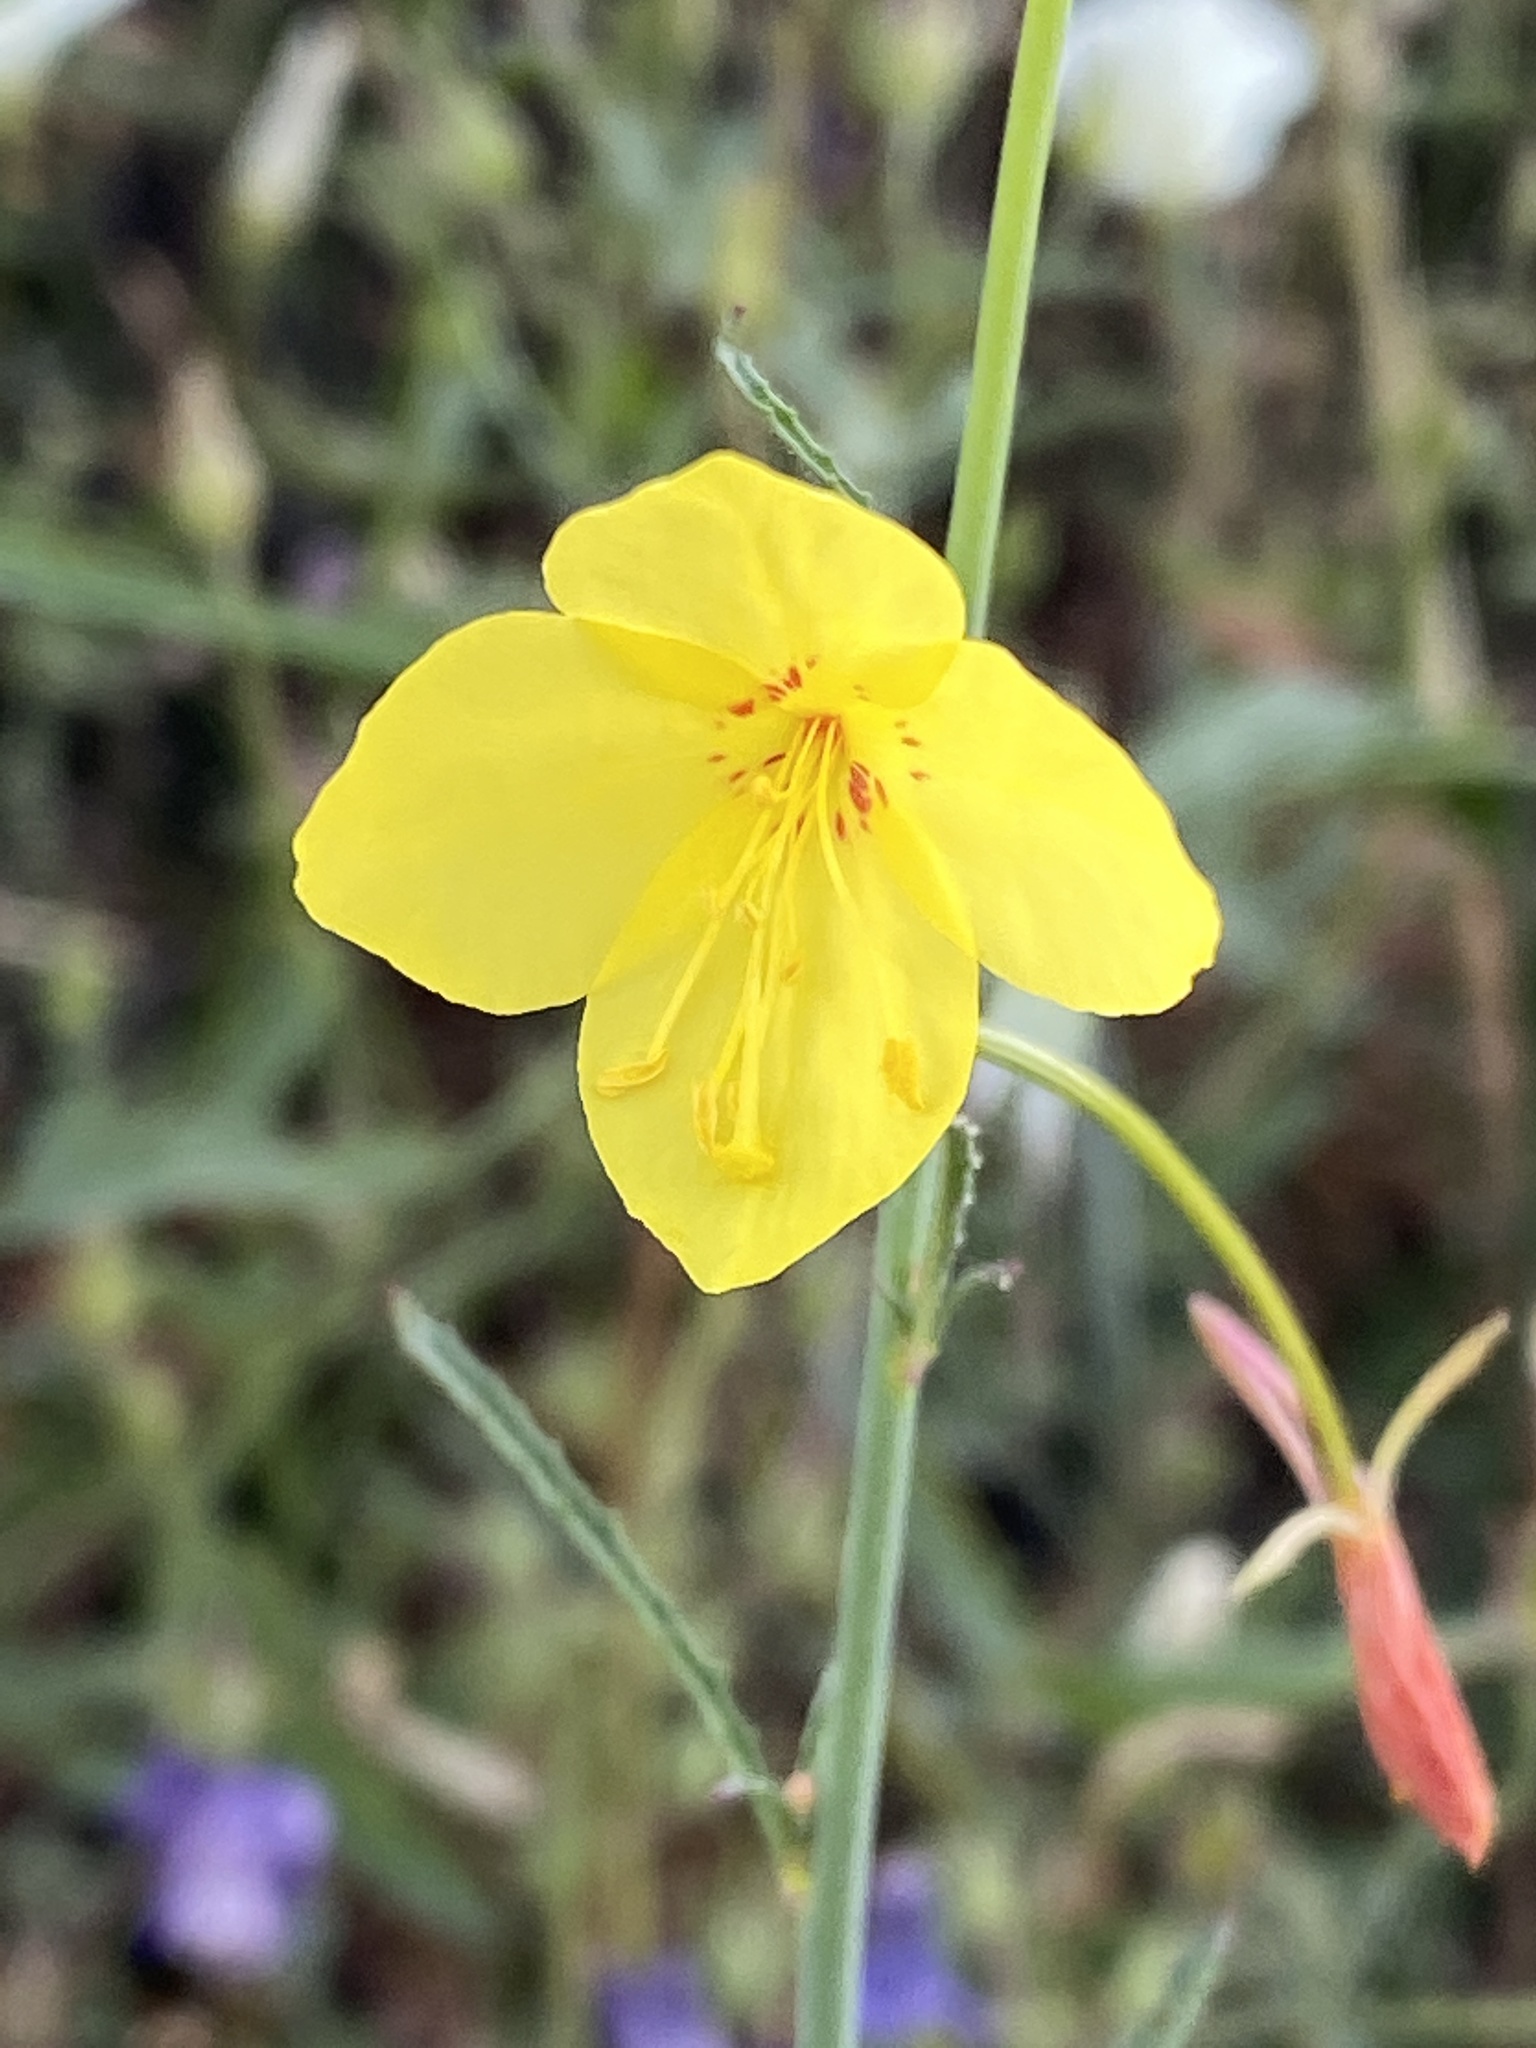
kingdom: Plantae
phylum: Tracheophyta
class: Magnoliopsida
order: Myrtales
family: Onagraceae
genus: Eulobus
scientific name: Eulobus californicus
